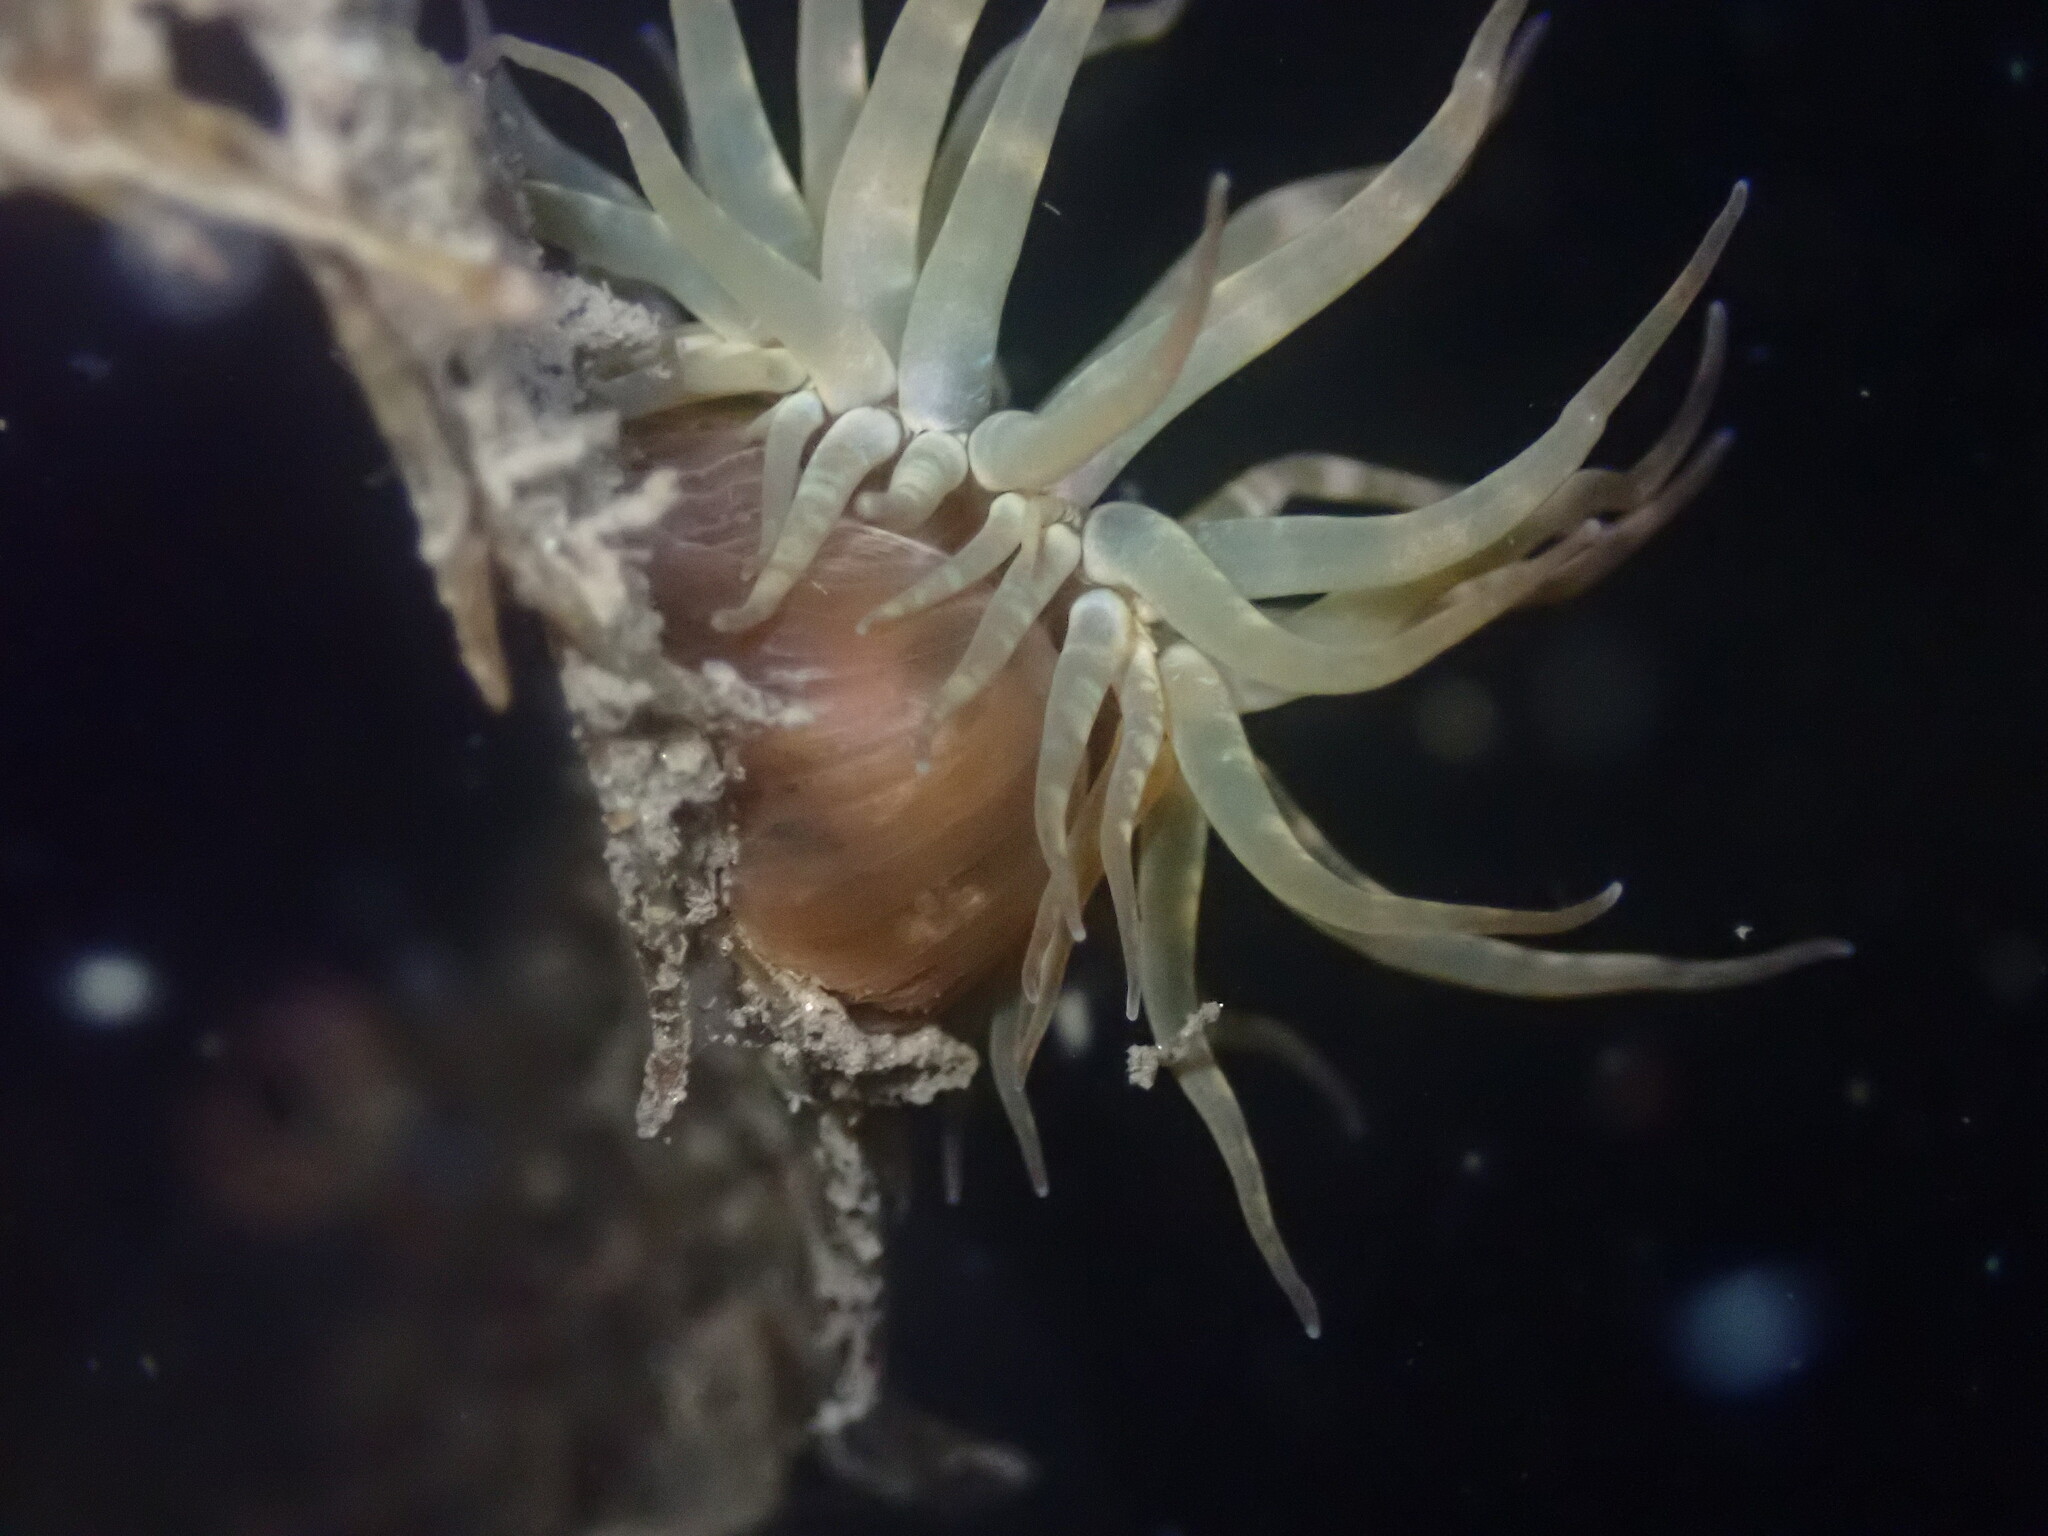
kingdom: Animalia
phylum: Cnidaria
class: Anthozoa
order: Actiniaria
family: Aiptasiidae
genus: Exaiptasia
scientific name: Exaiptasia diaphana
